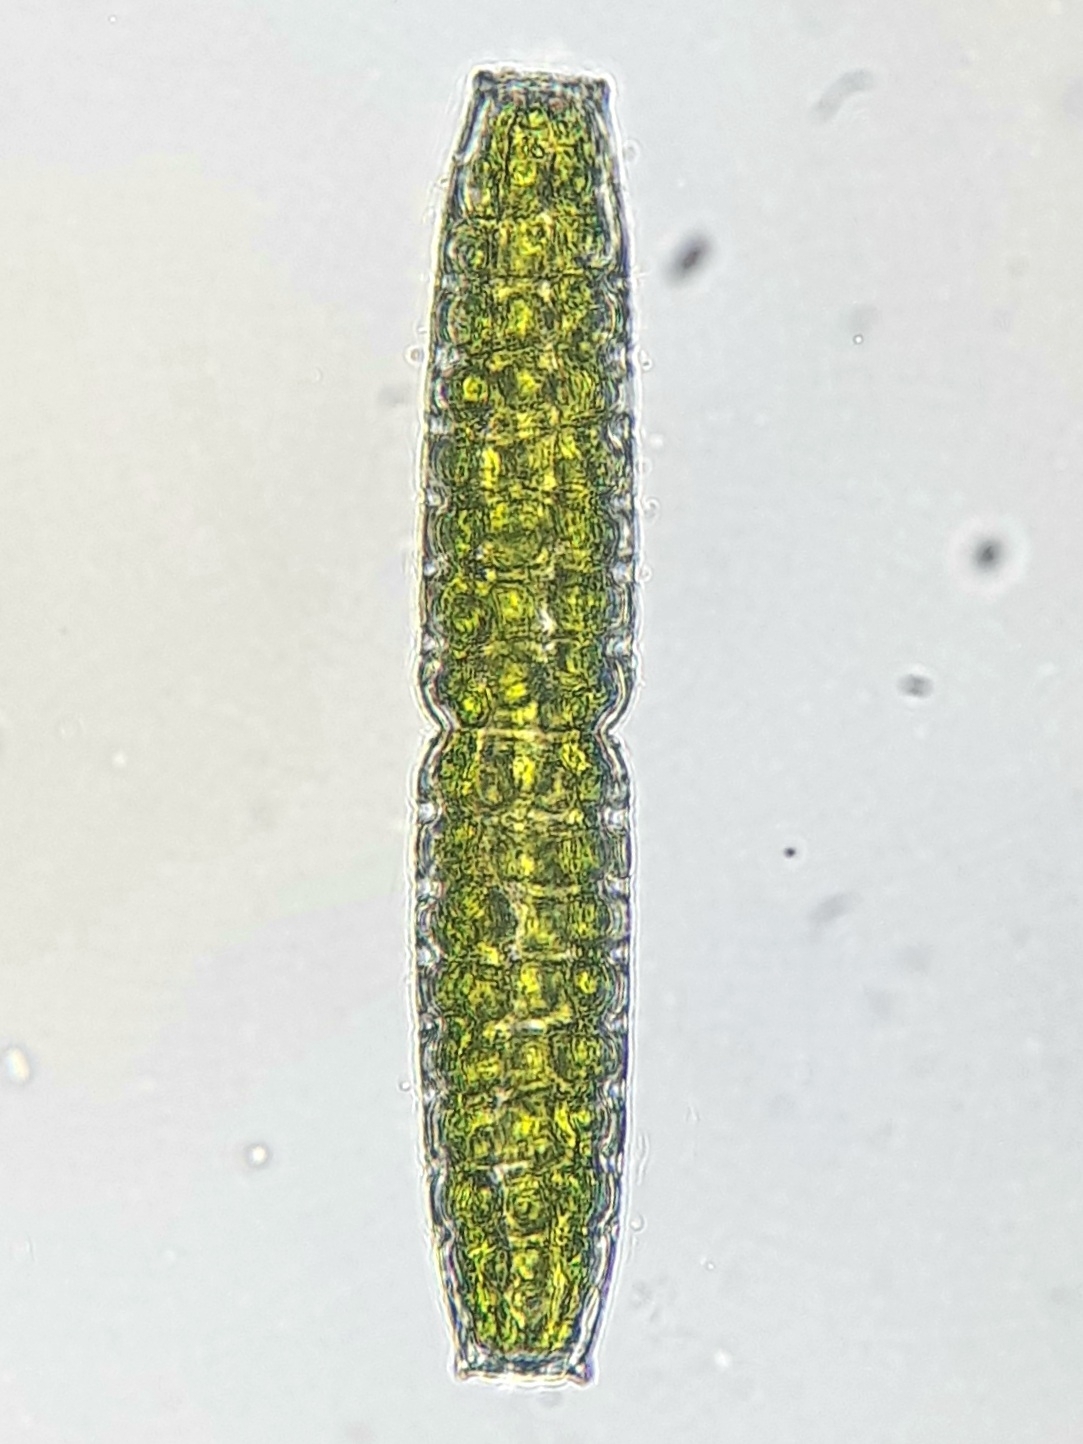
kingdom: Plantae
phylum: Charophyta
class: Zygnematophyceae
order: Zygnematales
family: Desmidiaceae
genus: Pleurotaenium
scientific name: Pleurotaenium verrucosum
